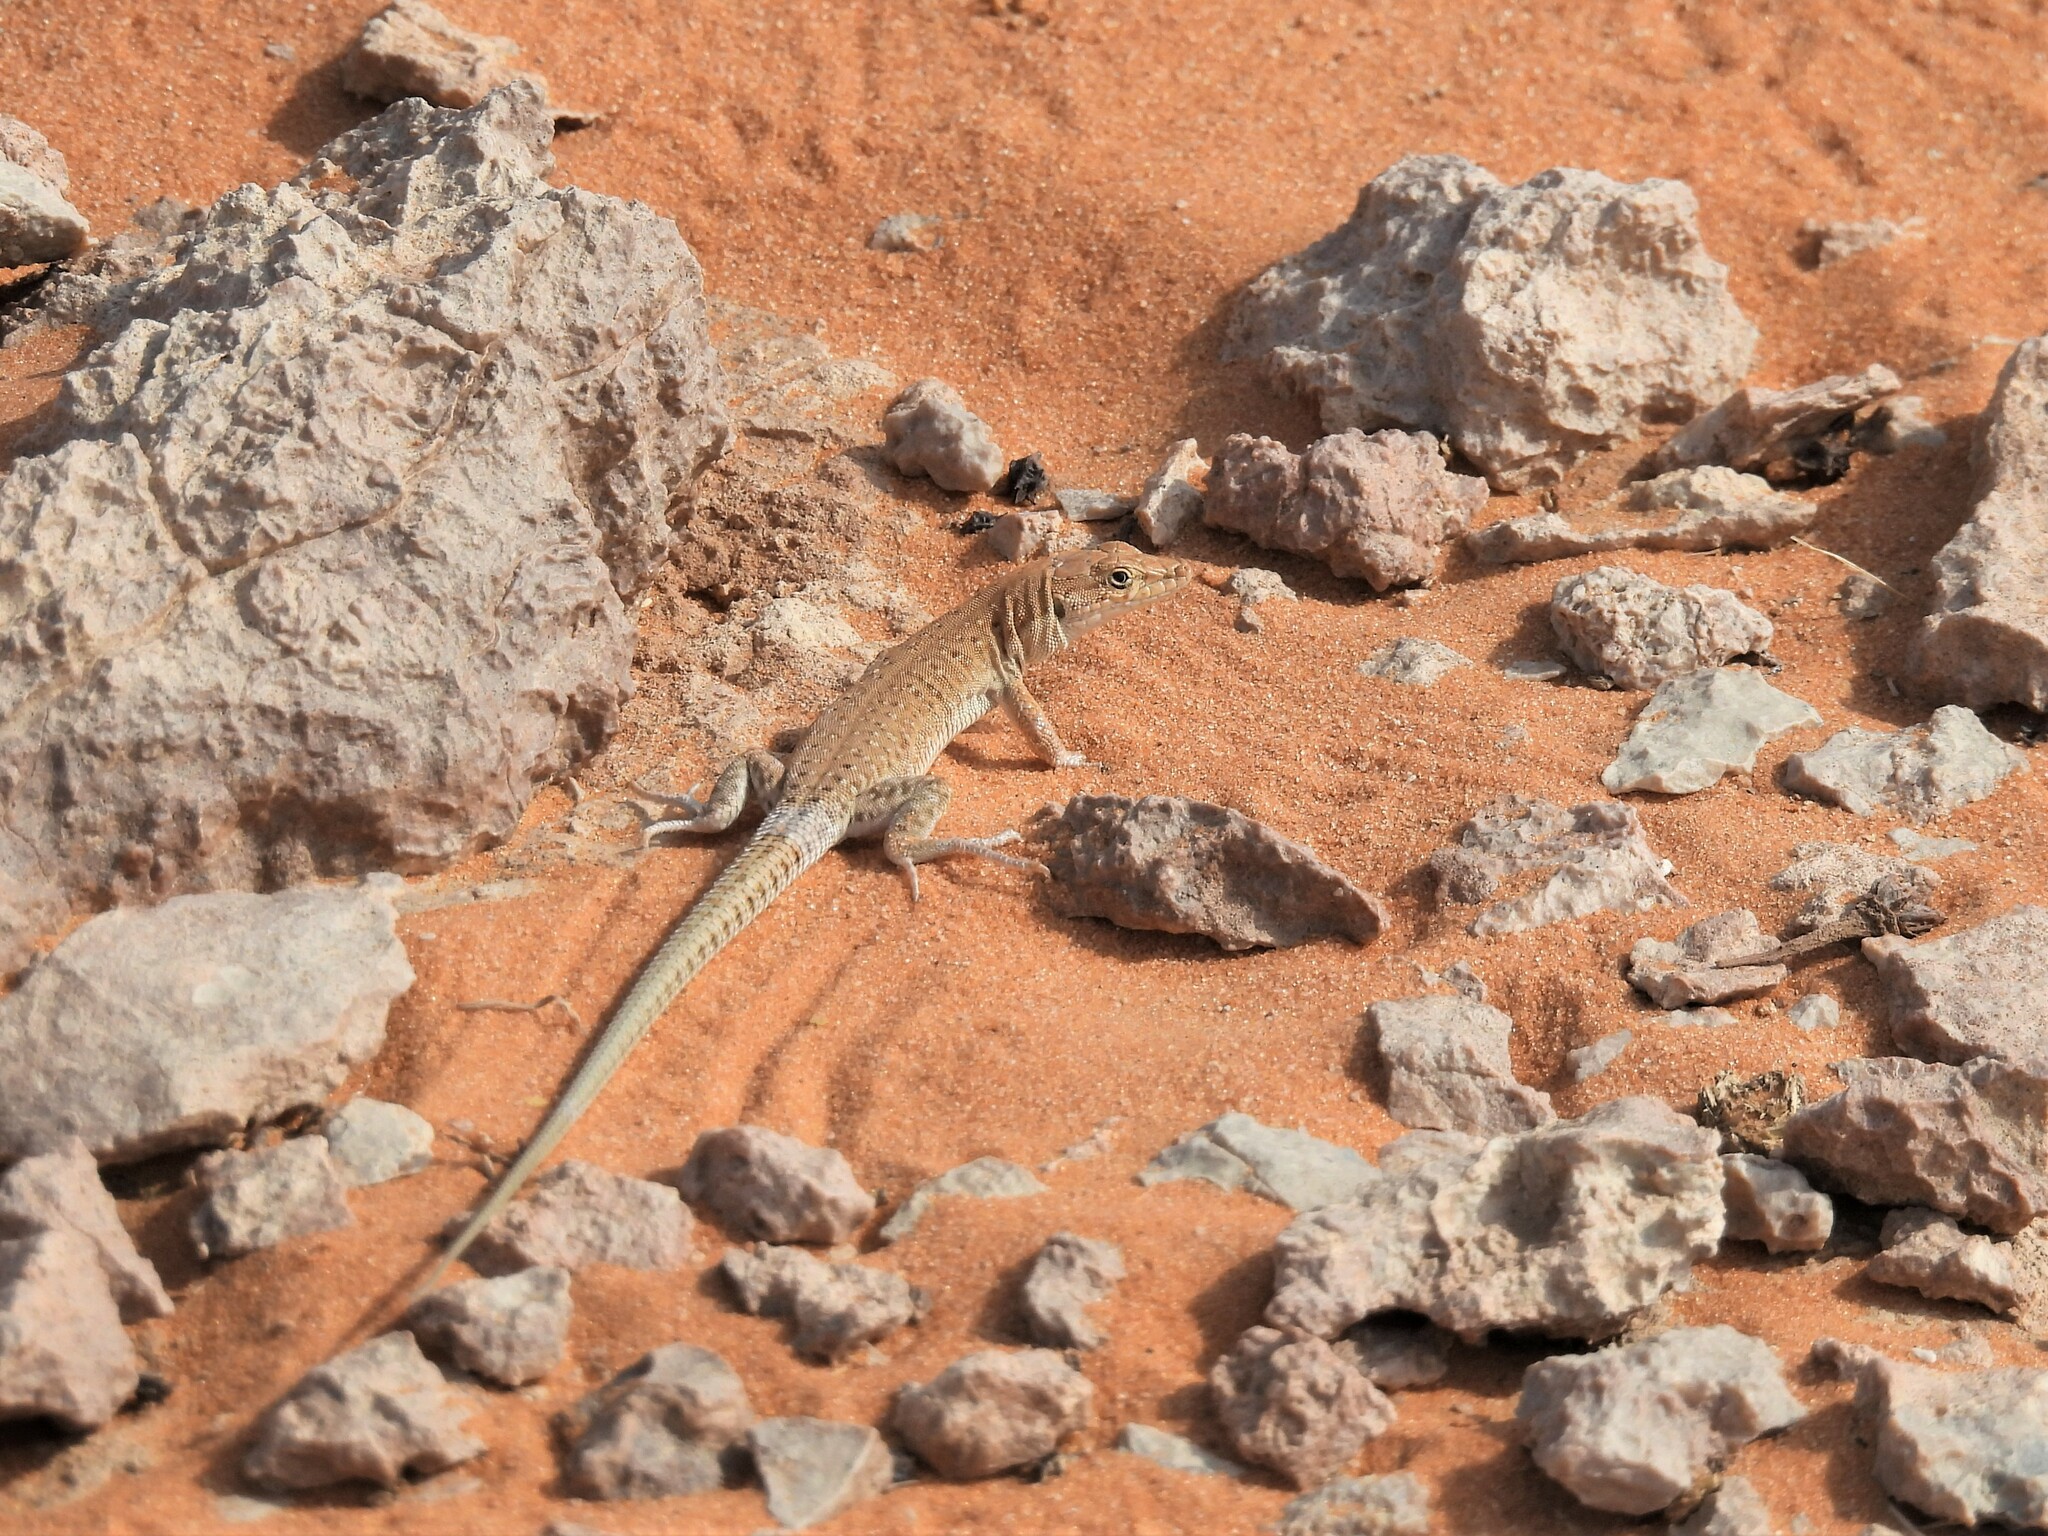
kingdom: Animalia
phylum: Chordata
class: Squamata
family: Lacertidae
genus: Mesalina
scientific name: Mesalina guttulata
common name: Desert lacerta
